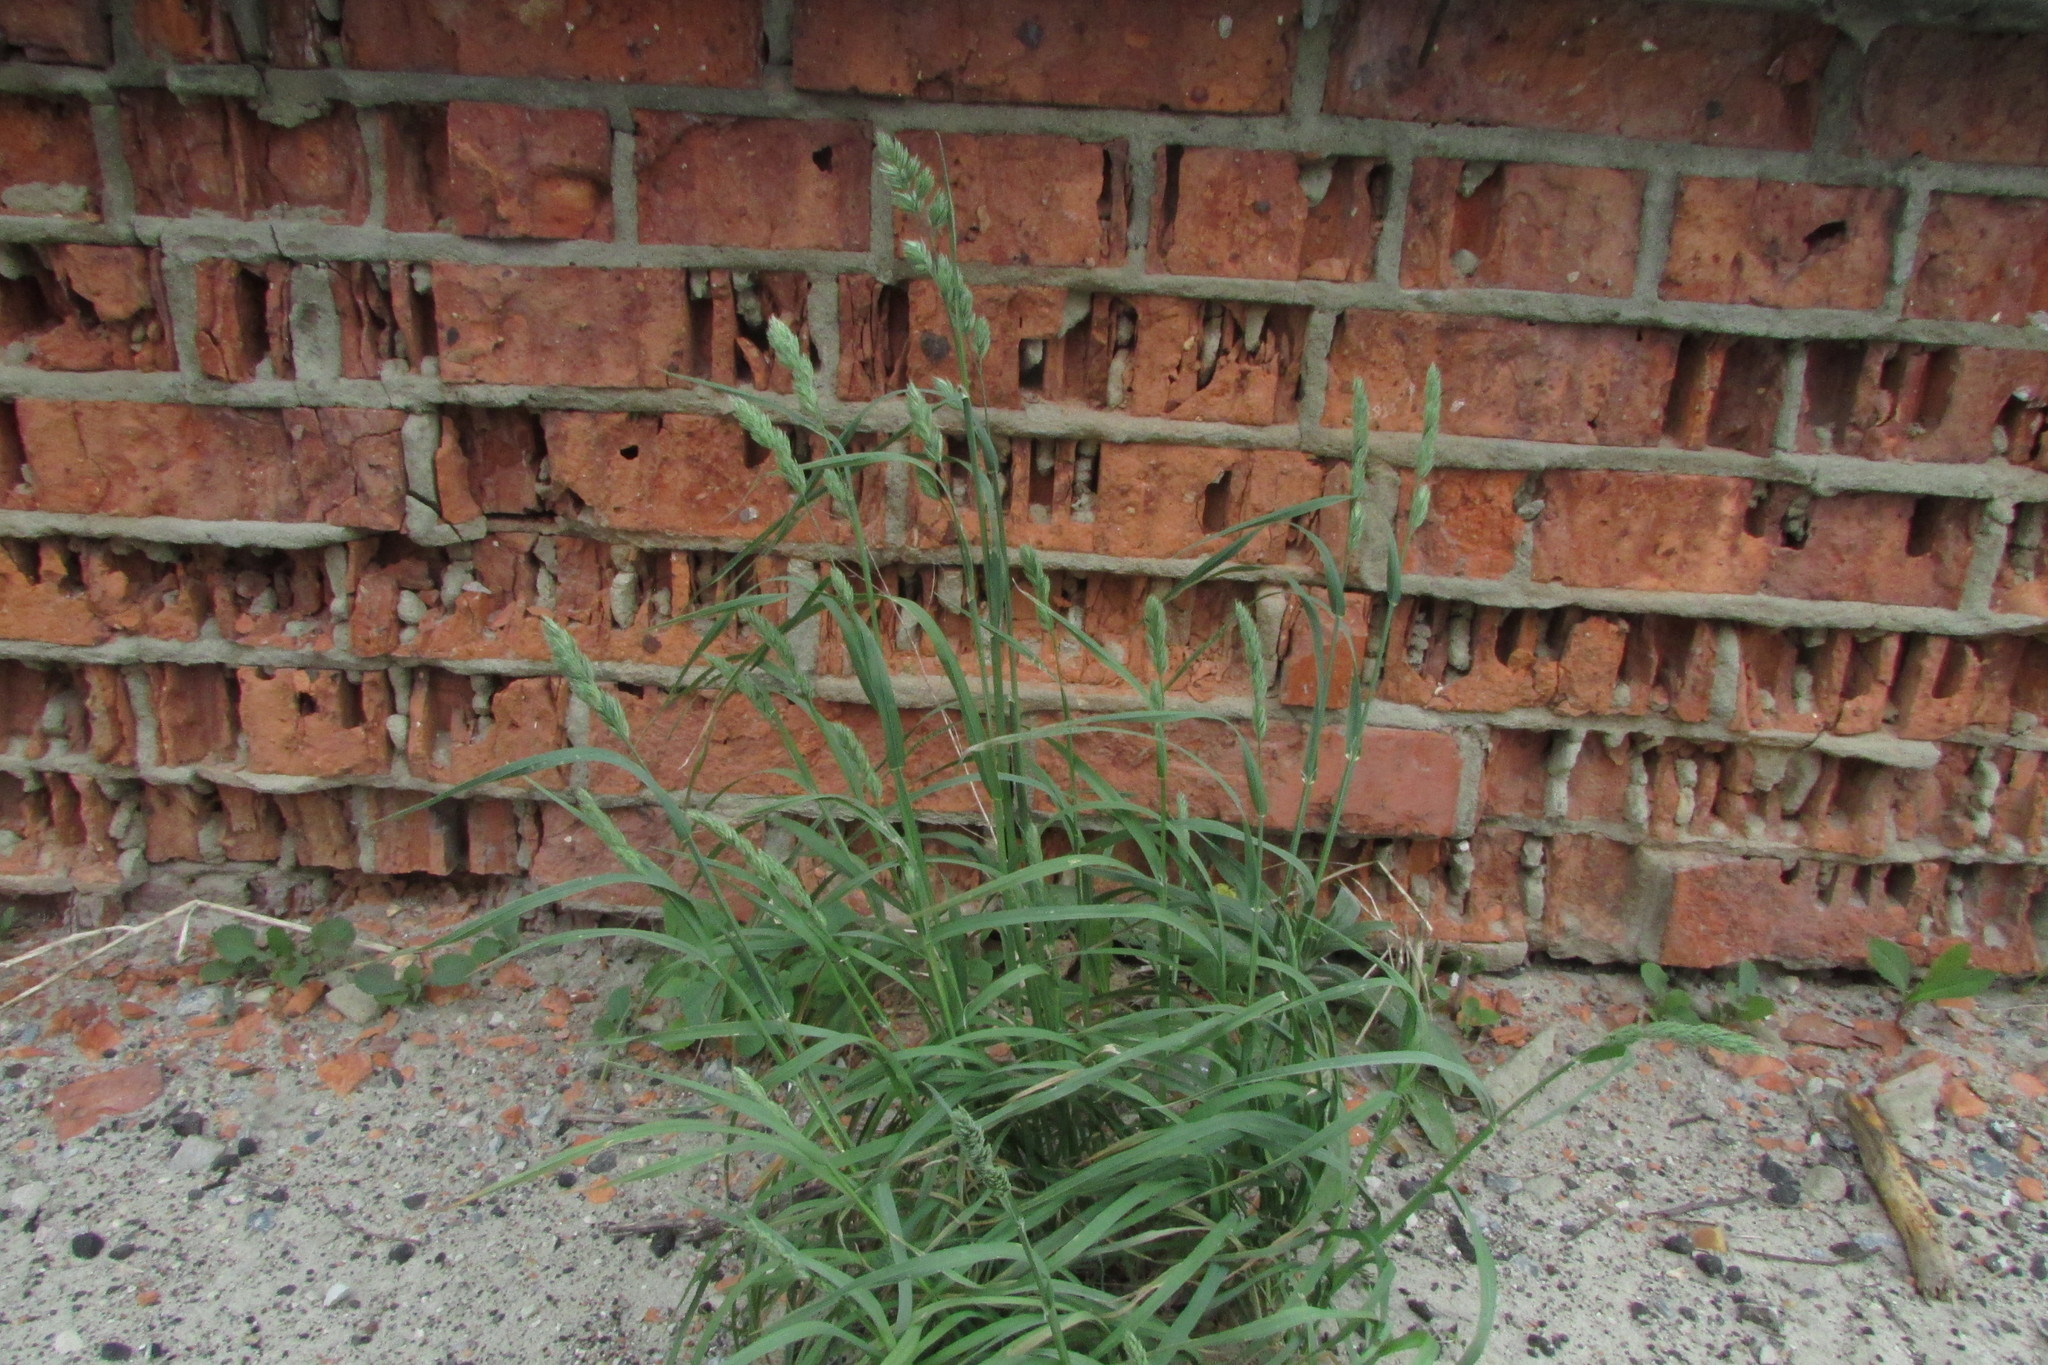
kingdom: Plantae
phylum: Tracheophyta
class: Liliopsida
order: Poales
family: Poaceae
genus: Dactylis
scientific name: Dactylis glomerata
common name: Orchardgrass
